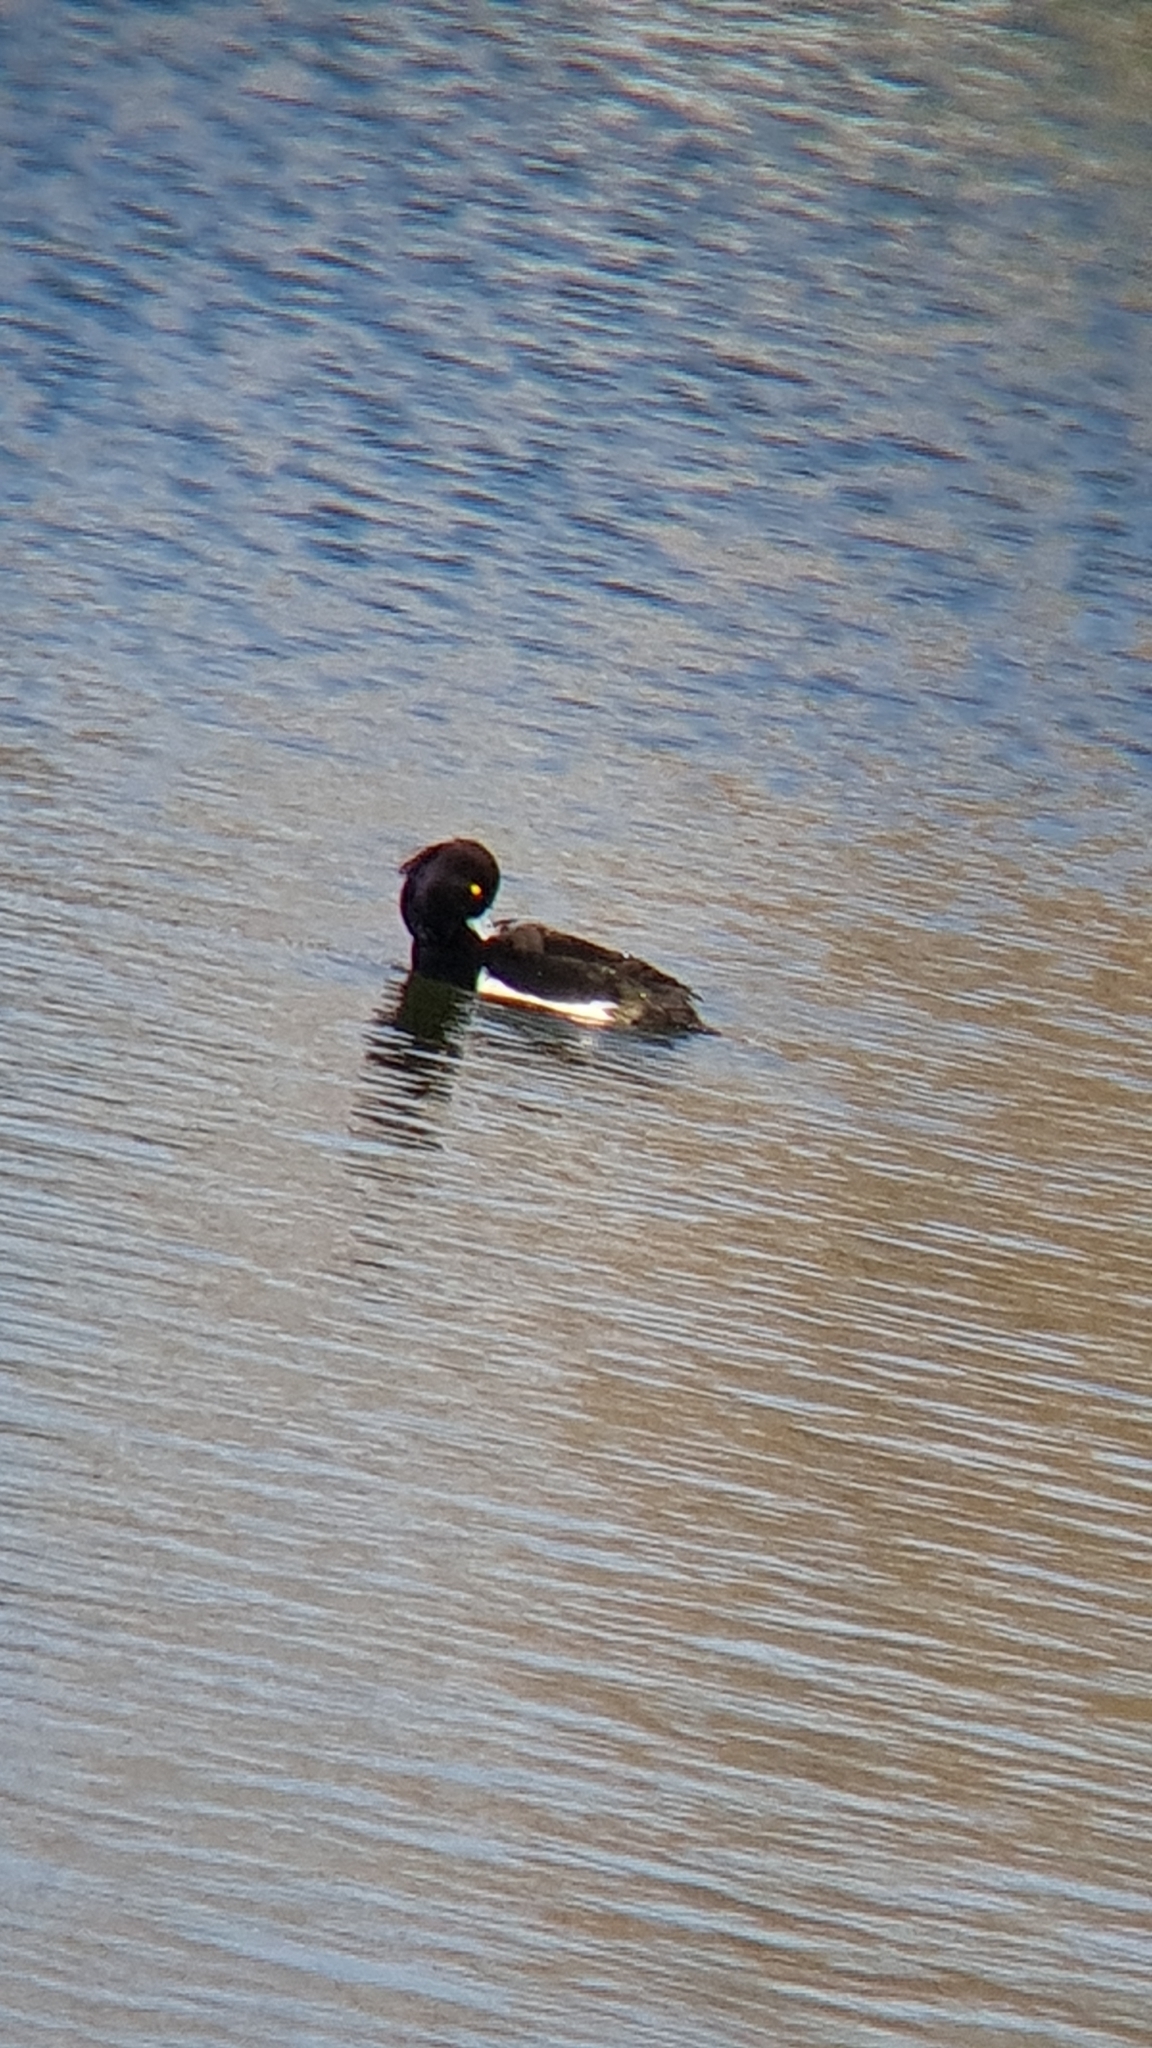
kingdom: Animalia
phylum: Chordata
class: Aves
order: Anseriformes
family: Anatidae
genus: Aythya
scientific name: Aythya fuligula
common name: Tufted duck
